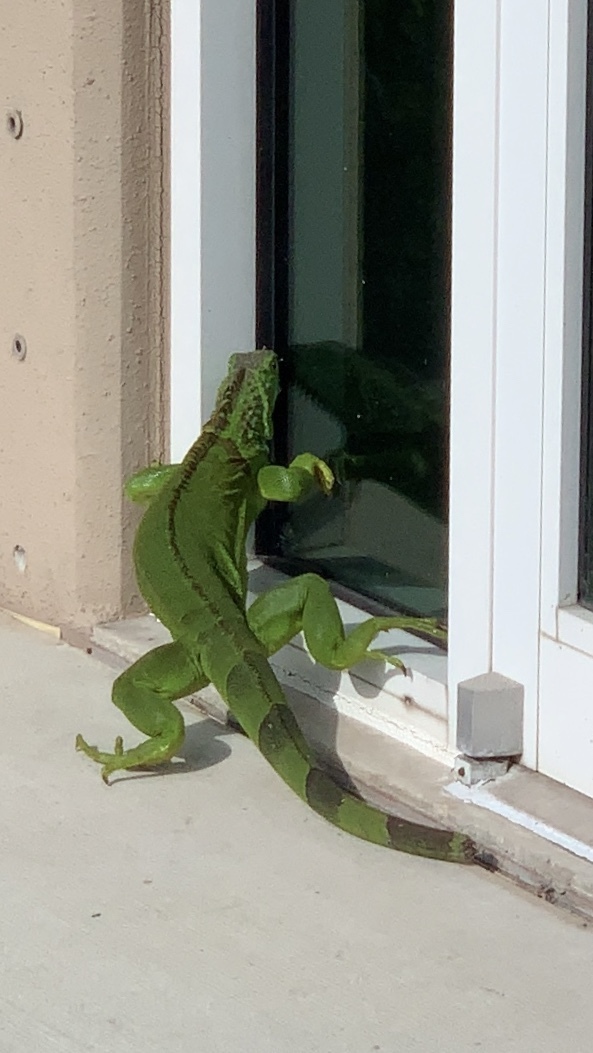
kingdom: Animalia
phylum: Chordata
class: Squamata
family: Iguanidae
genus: Iguana
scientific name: Iguana iguana
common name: Green iguana
